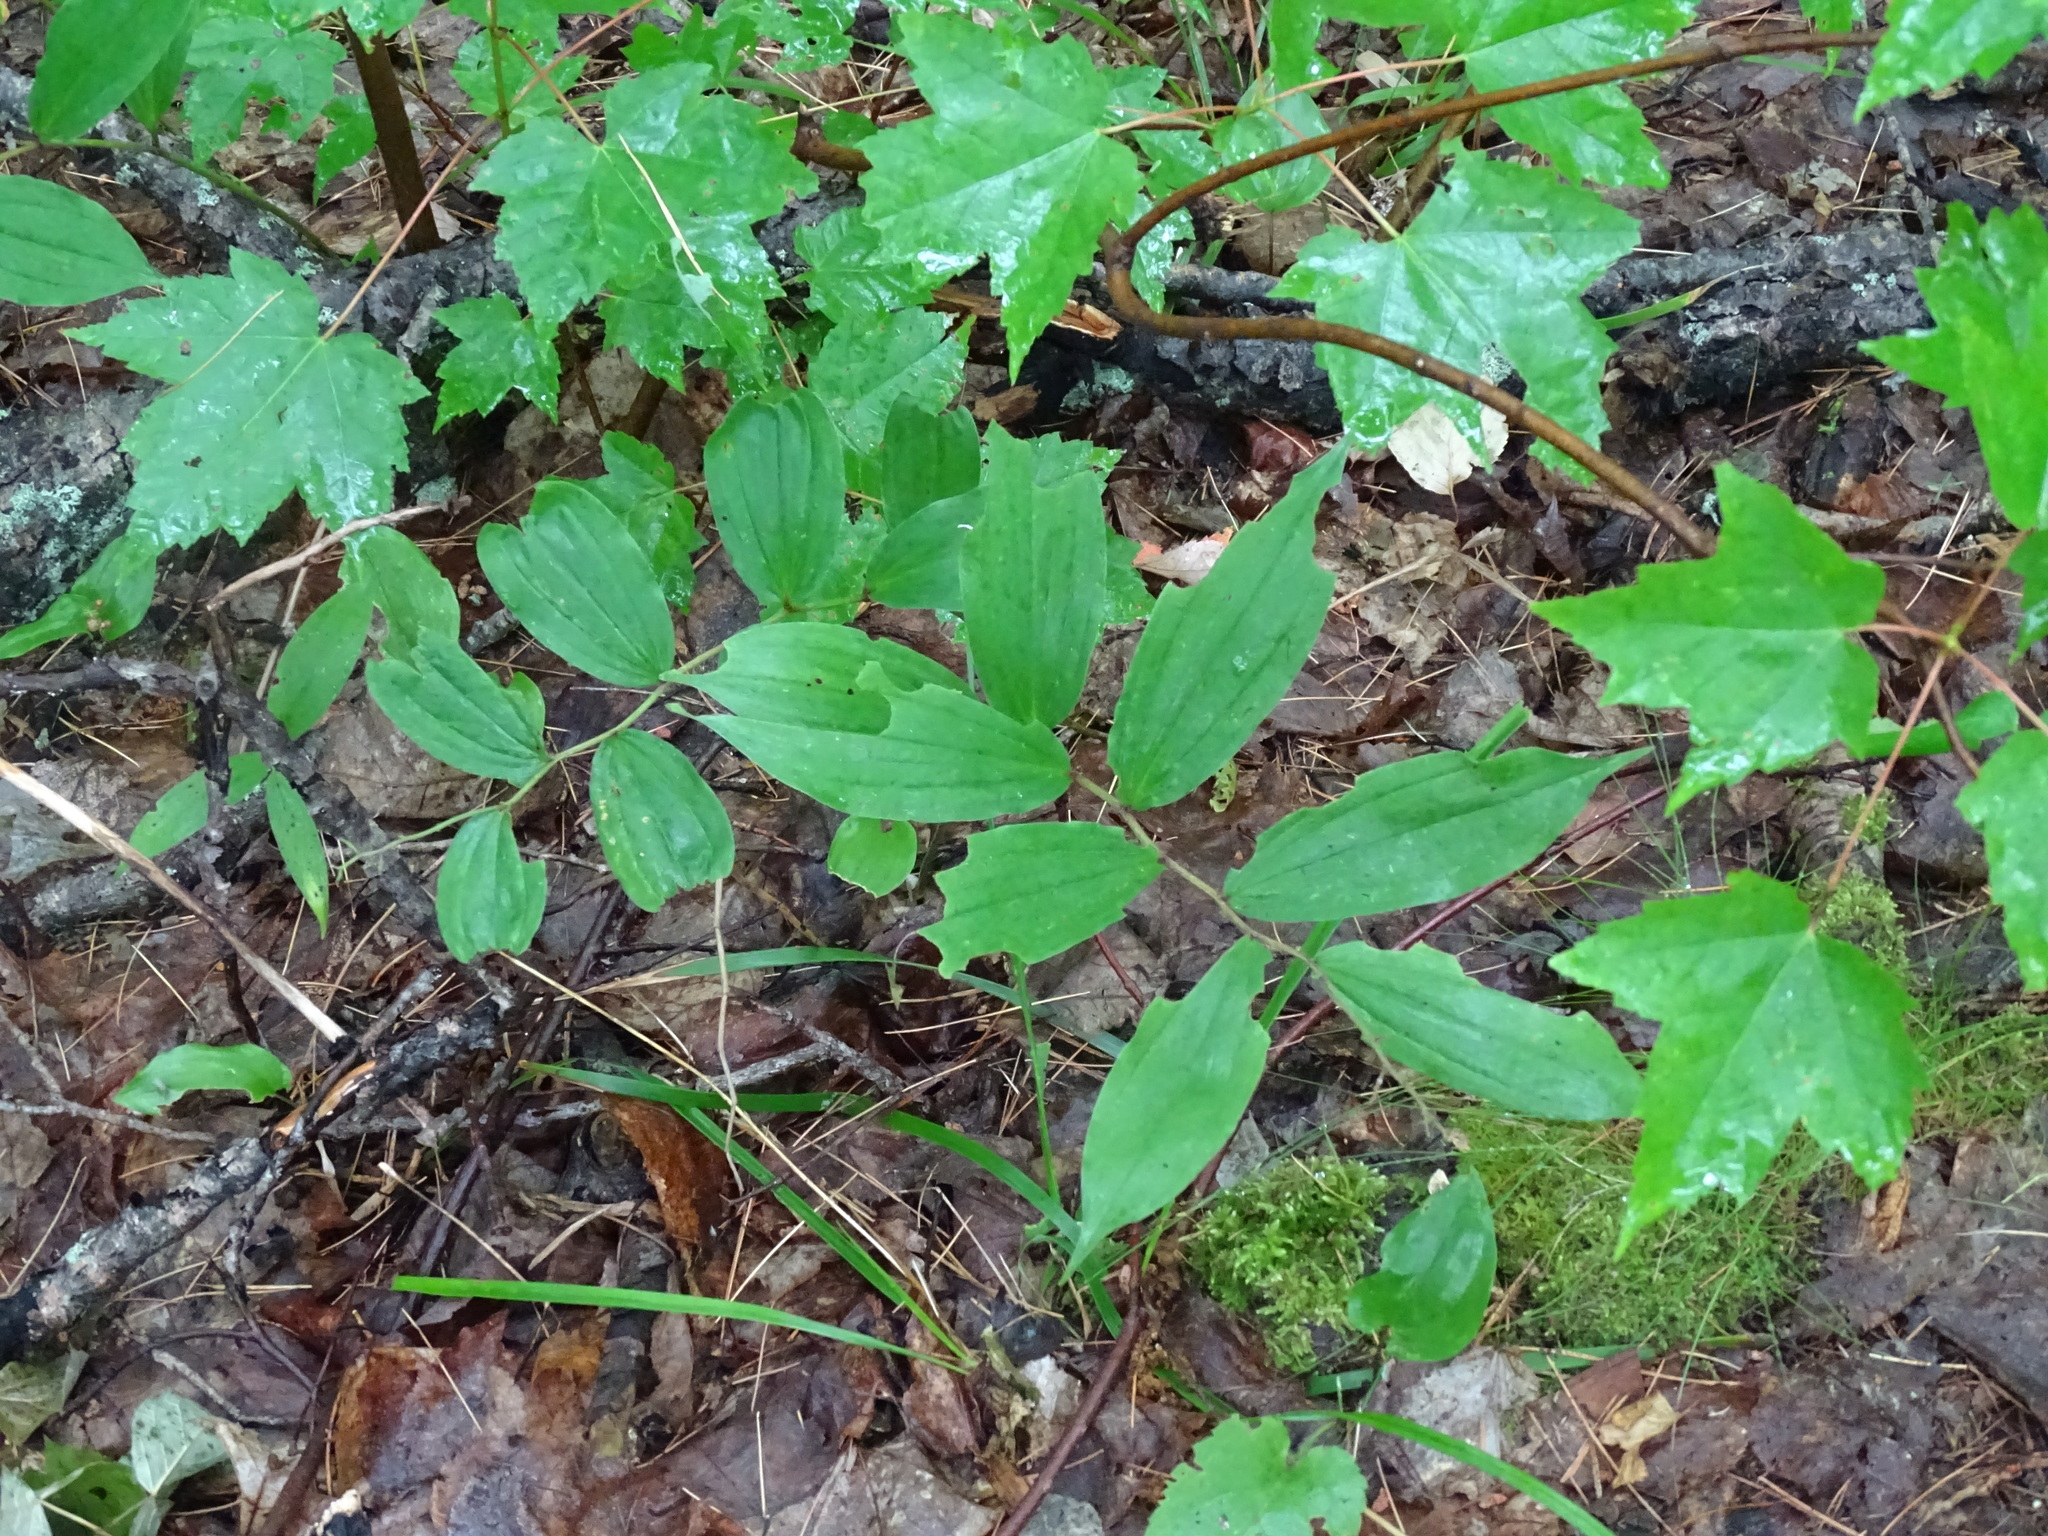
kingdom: Plantae
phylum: Tracheophyta
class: Liliopsida
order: Asparagales
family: Asparagaceae
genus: Maianthemum
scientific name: Maianthemum racemosum
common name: False spikenard
